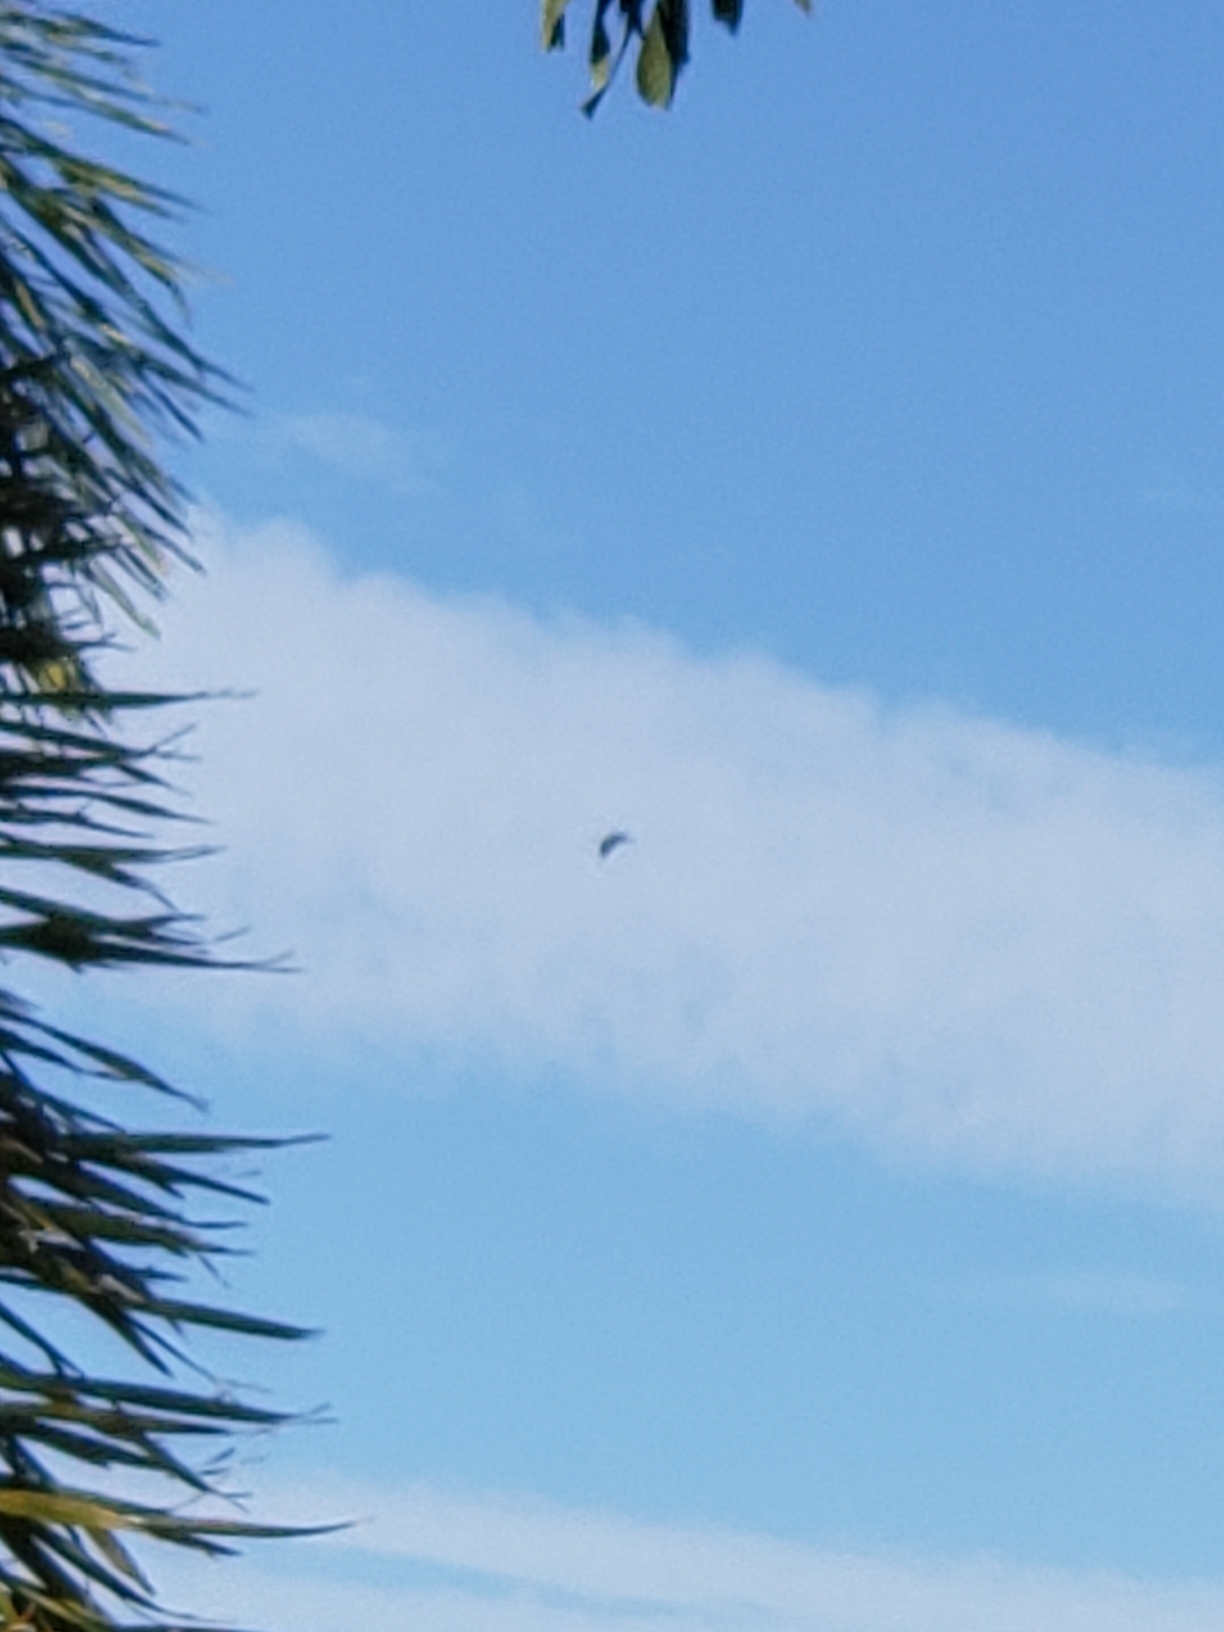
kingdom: Animalia
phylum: Chordata
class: Aves
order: Accipitriformes
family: Accipitridae
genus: Accipiter
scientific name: Accipiter cooperii
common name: Cooper's hawk
